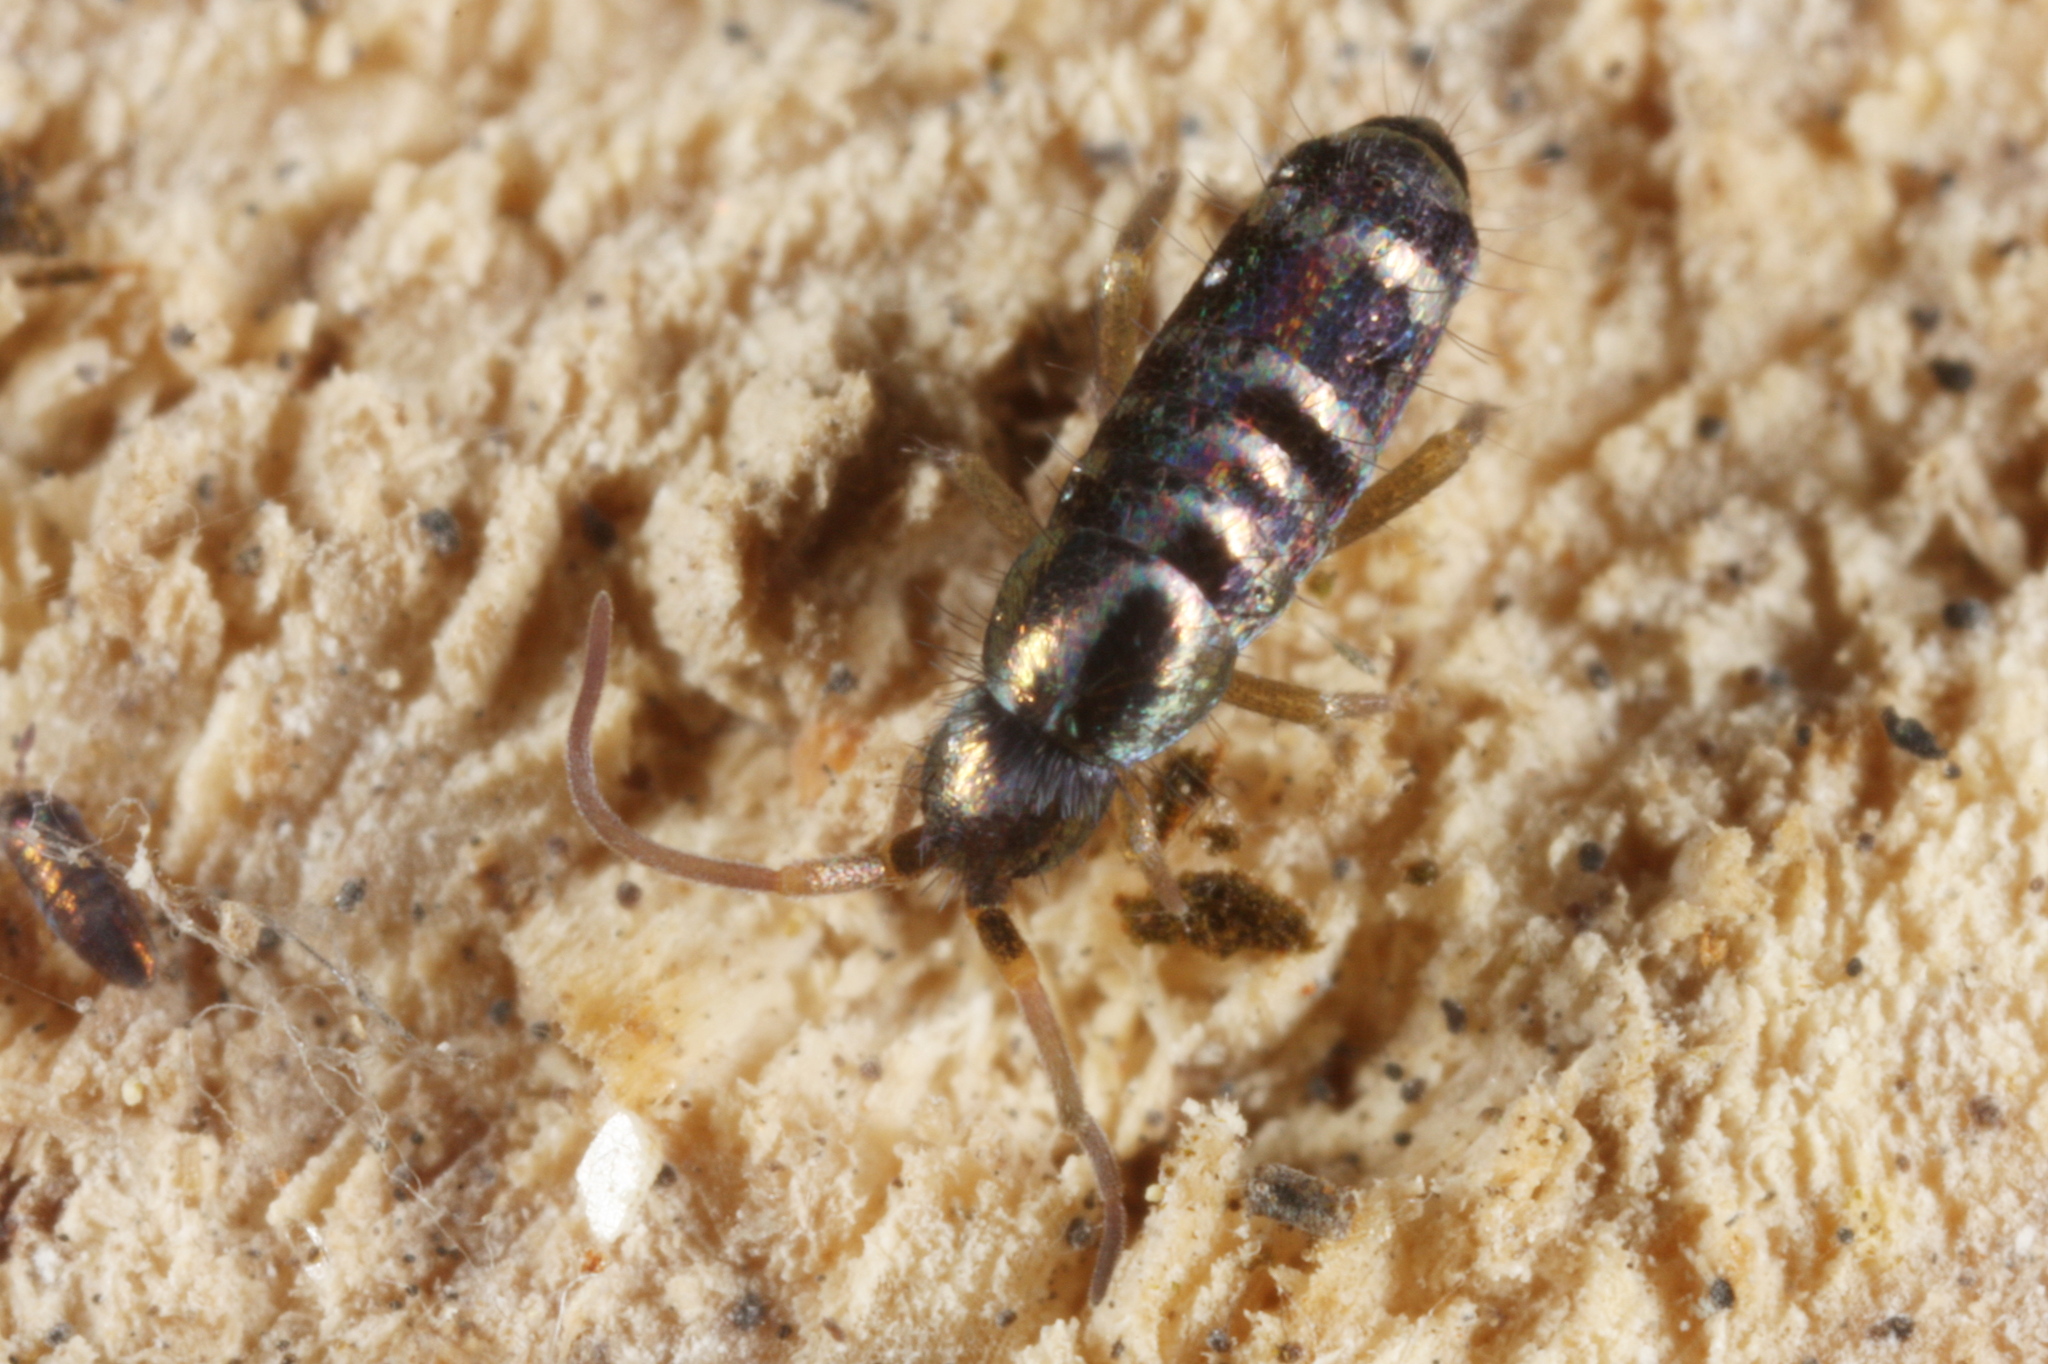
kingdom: Animalia
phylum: Arthropoda
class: Collembola
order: Entomobryomorpha
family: Tomoceridae
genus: Tomocerus
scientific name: Tomocerus vulgaris
